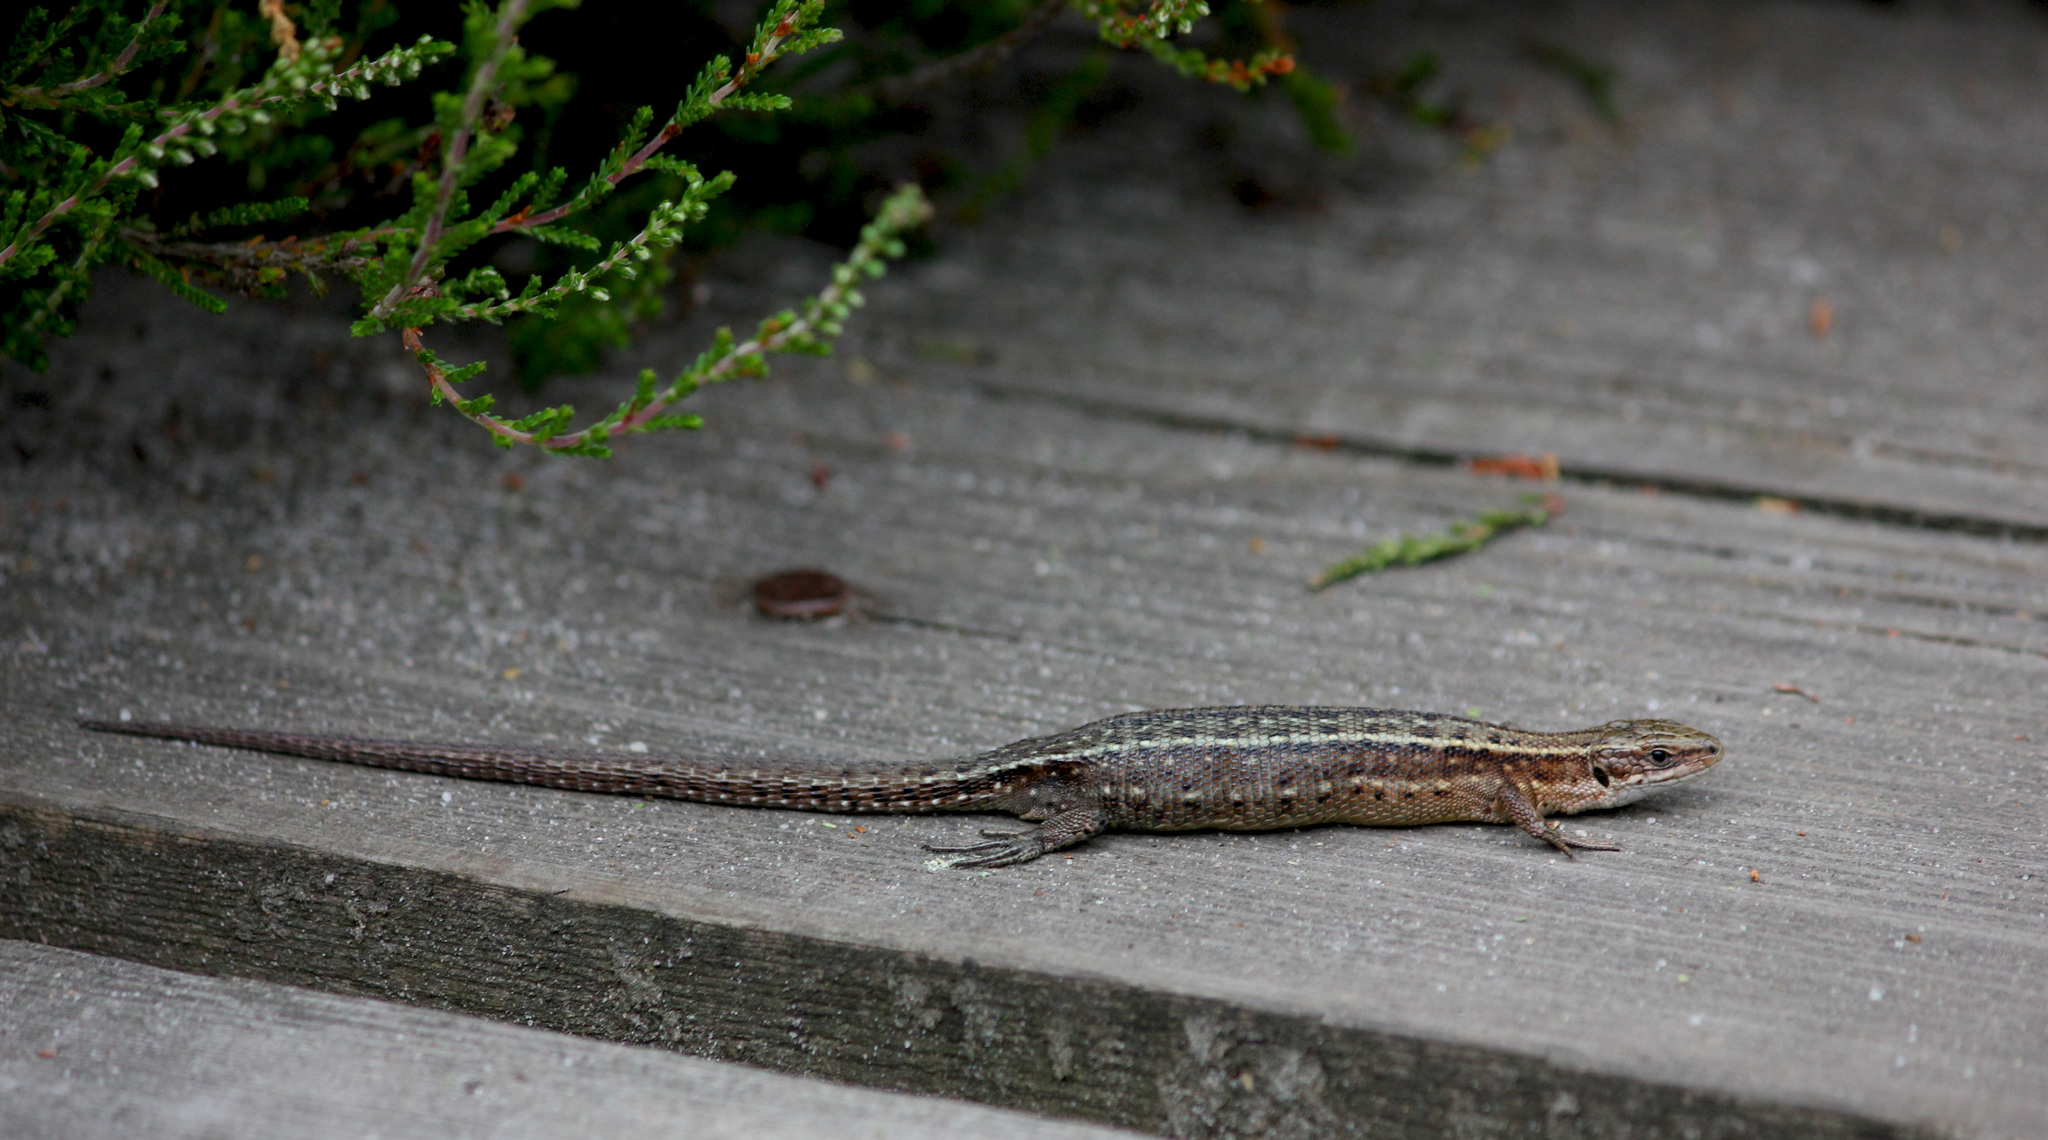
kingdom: Animalia
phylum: Chordata
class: Squamata
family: Lacertidae
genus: Zootoca
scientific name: Zootoca vivipara
